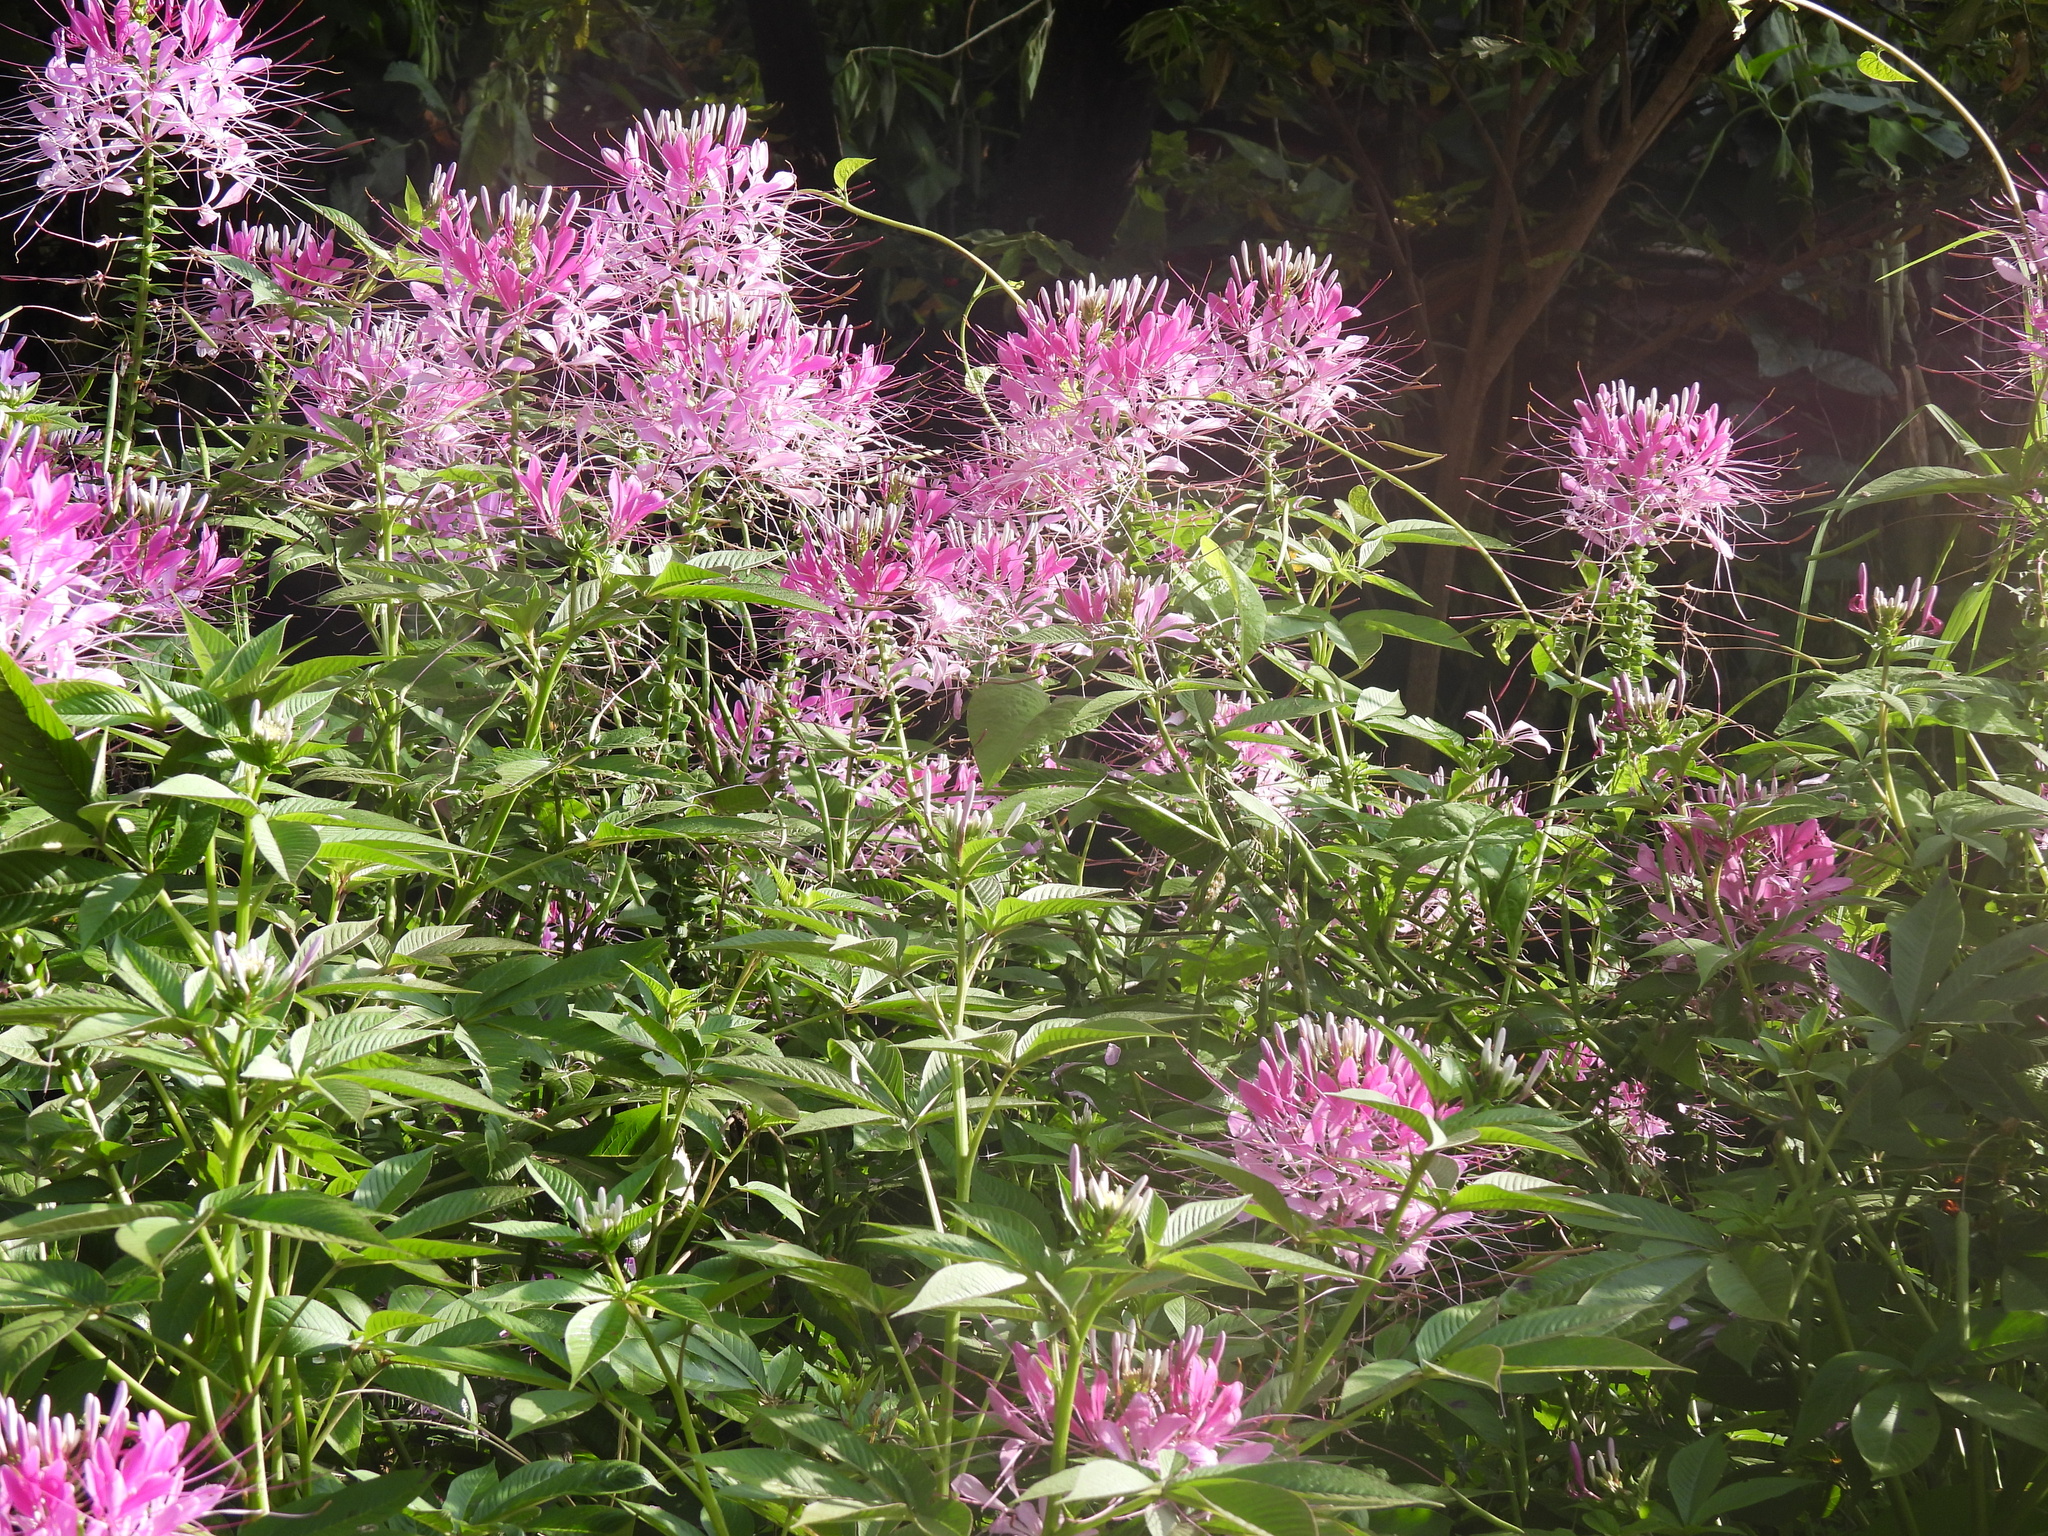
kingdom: Plantae
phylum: Tracheophyta
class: Magnoliopsida
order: Brassicales
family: Cleomaceae
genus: Tarenaya
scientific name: Tarenaya houtteana
